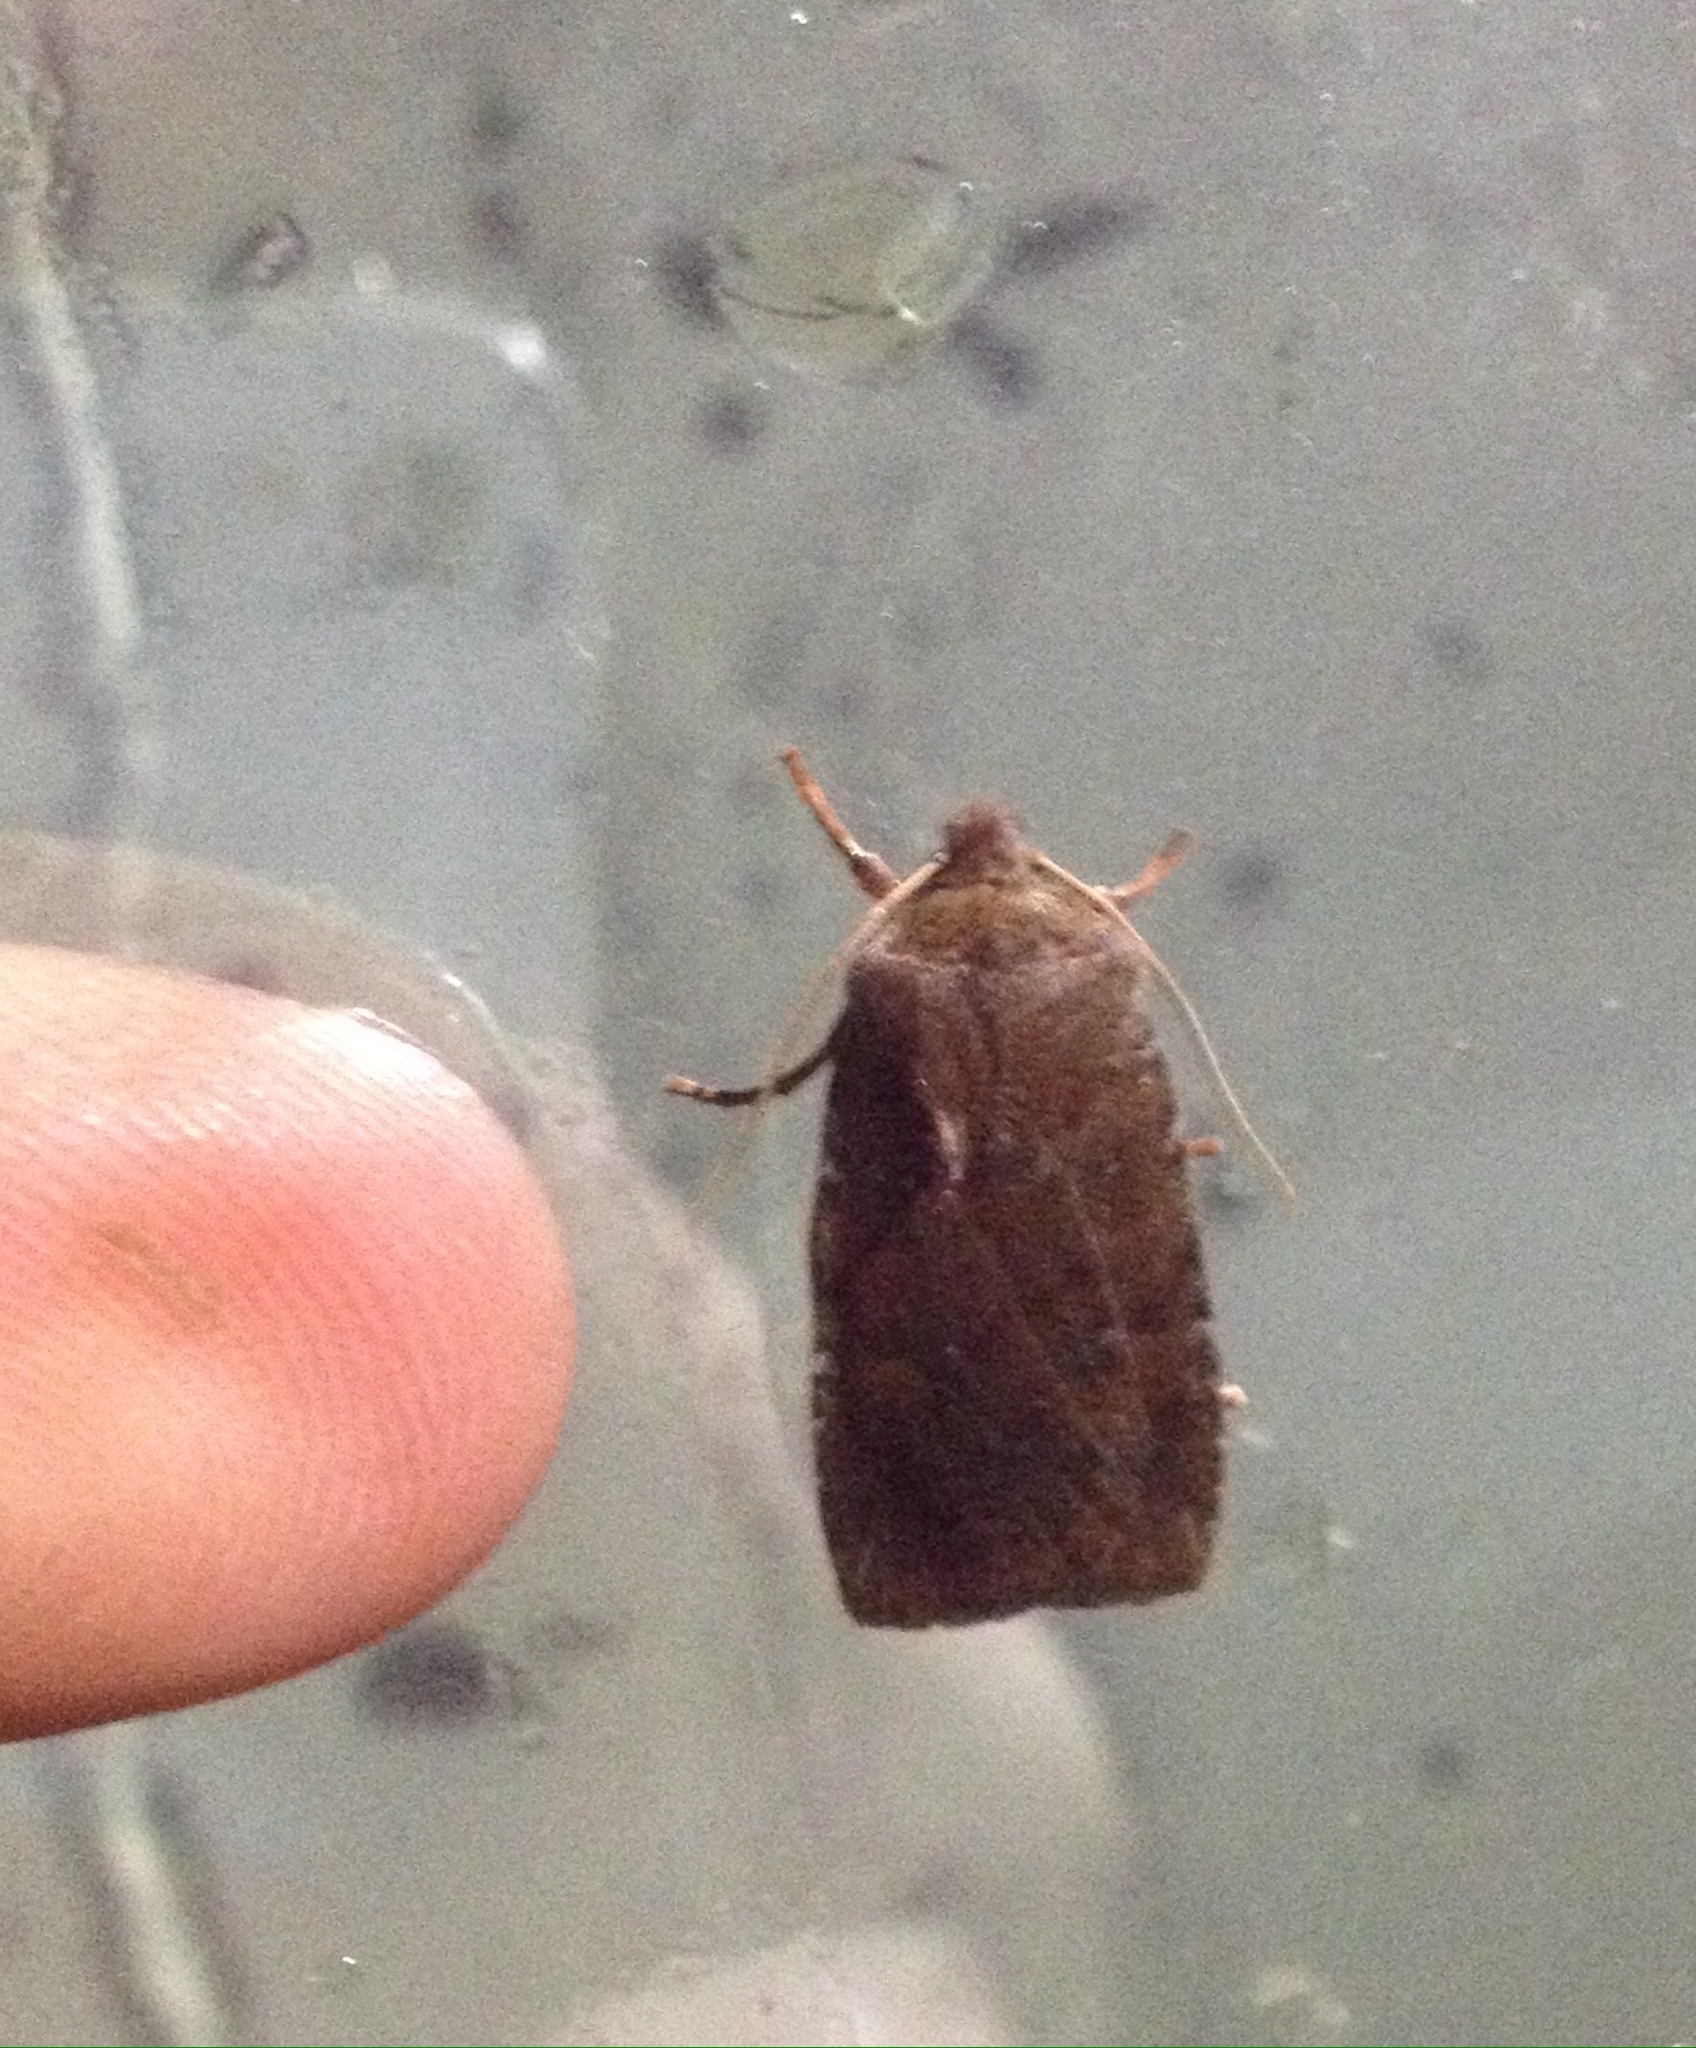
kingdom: Animalia
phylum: Arthropoda
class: Insecta
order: Lepidoptera
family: Noctuidae
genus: Conistra
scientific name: Conistra vaccinii
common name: Chestnut
